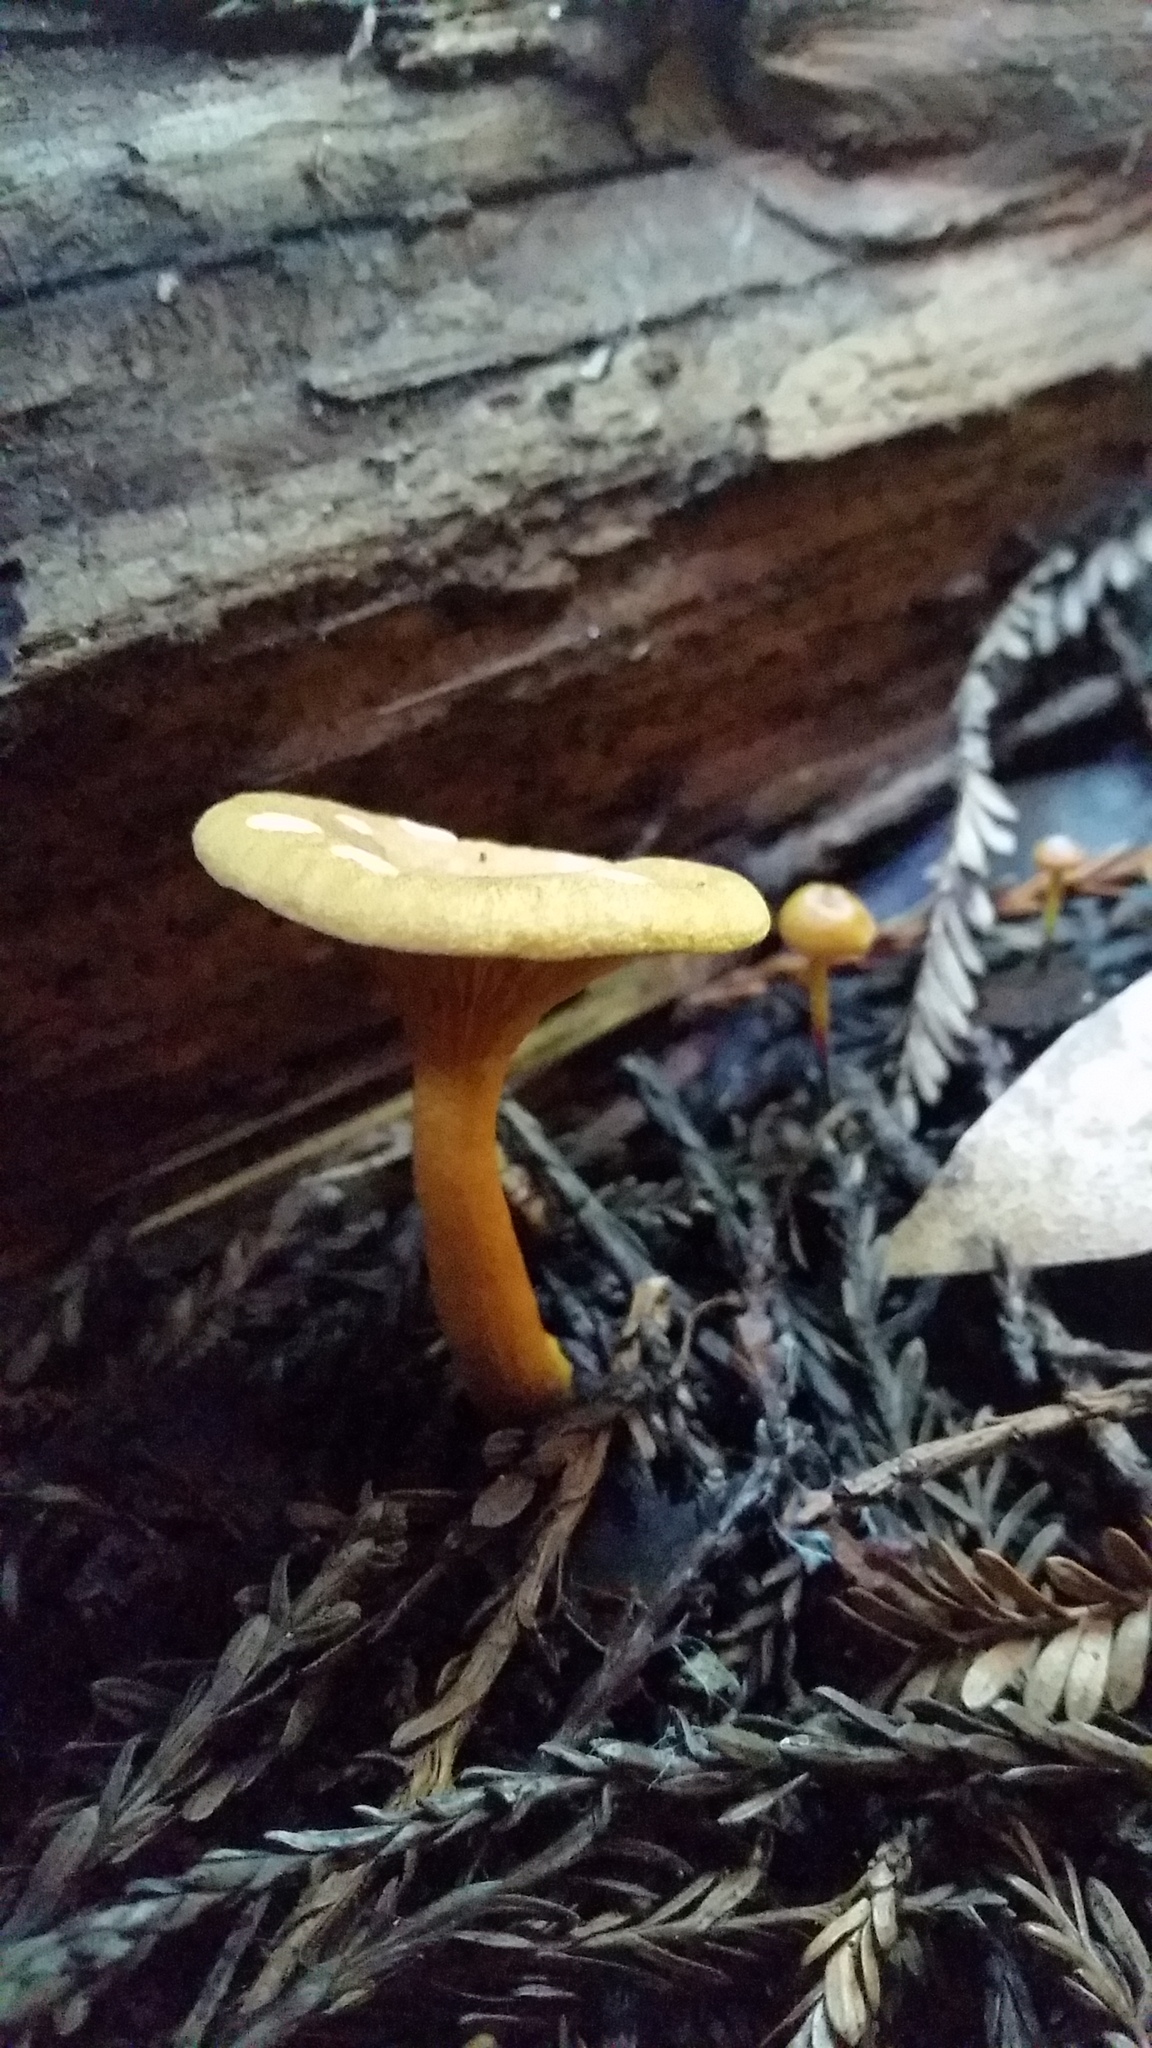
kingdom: Fungi
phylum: Basidiomycota
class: Agaricomycetes
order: Boletales
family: Hygrophoropsidaceae
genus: Hygrophoropsis
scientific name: Hygrophoropsis aurantiaca
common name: False chanterelle
